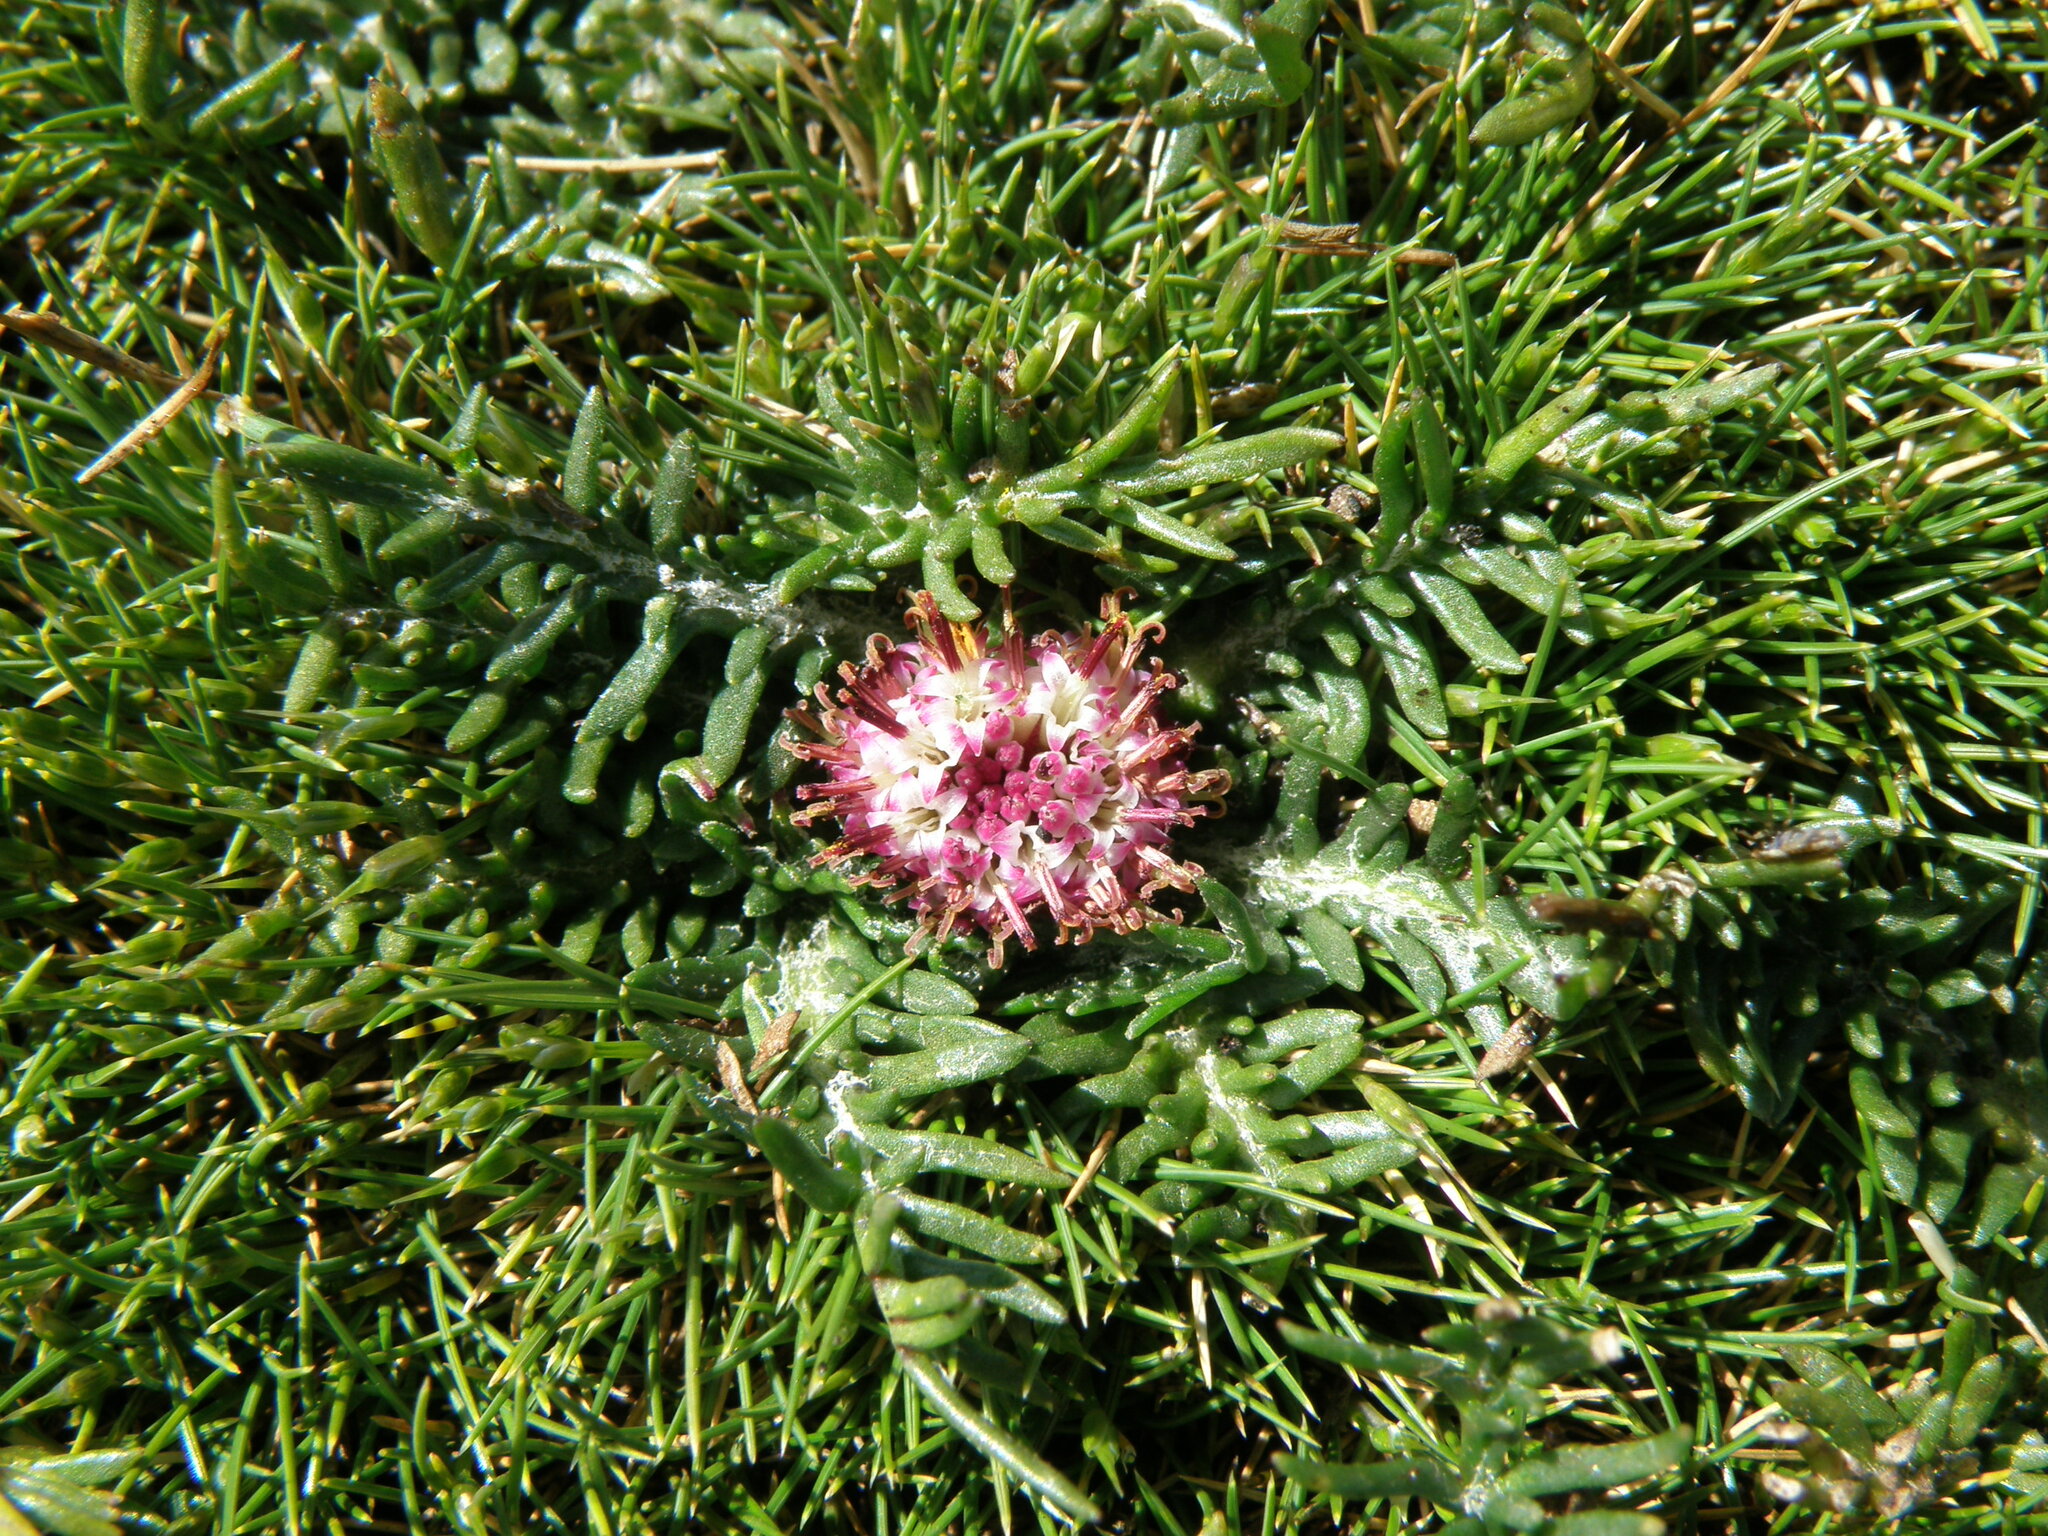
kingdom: Plantae
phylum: Tracheophyta
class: Magnoliopsida
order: Asterales
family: Asteraceae
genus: Rockhausenia
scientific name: Rockhausenia pinnatifida
